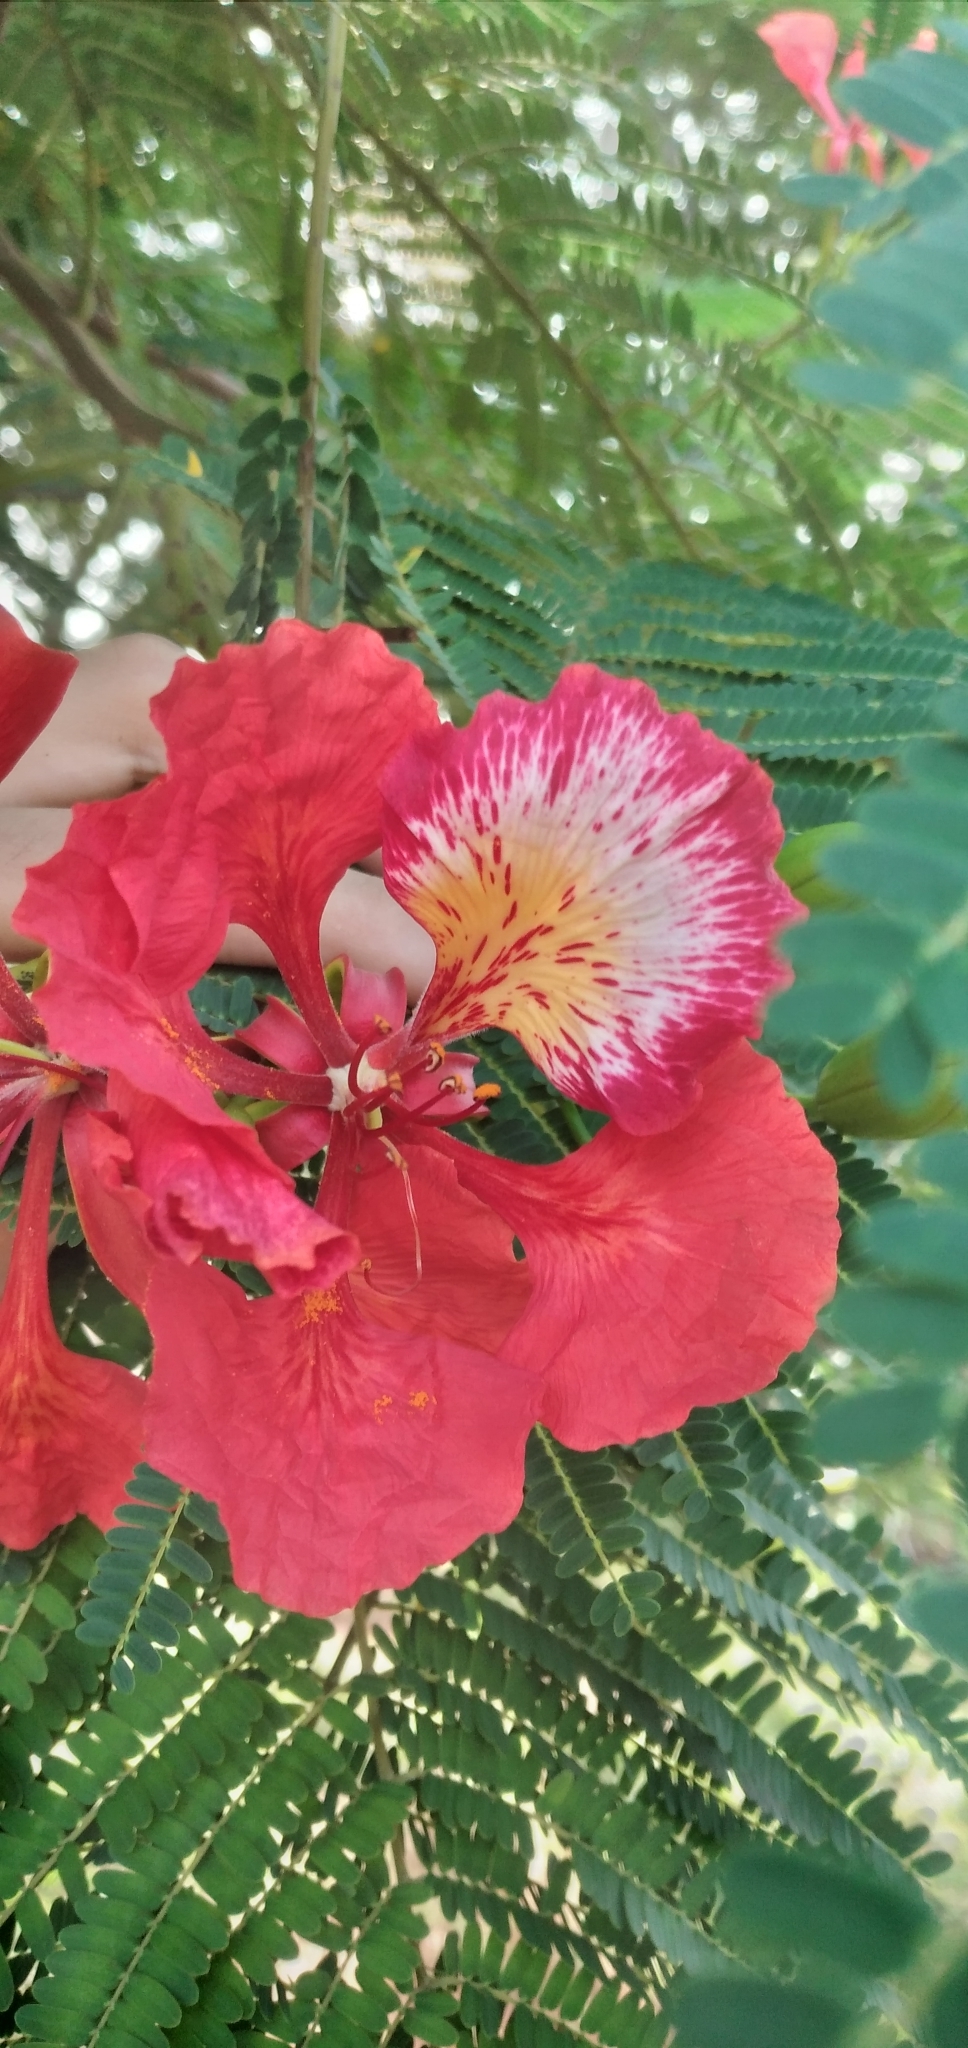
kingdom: Plantae
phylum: Tracheophyta
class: Magnoliopsida
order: Fabales
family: Fabaceae
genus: Delonix
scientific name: Delonix regia
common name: Royal poinciana
